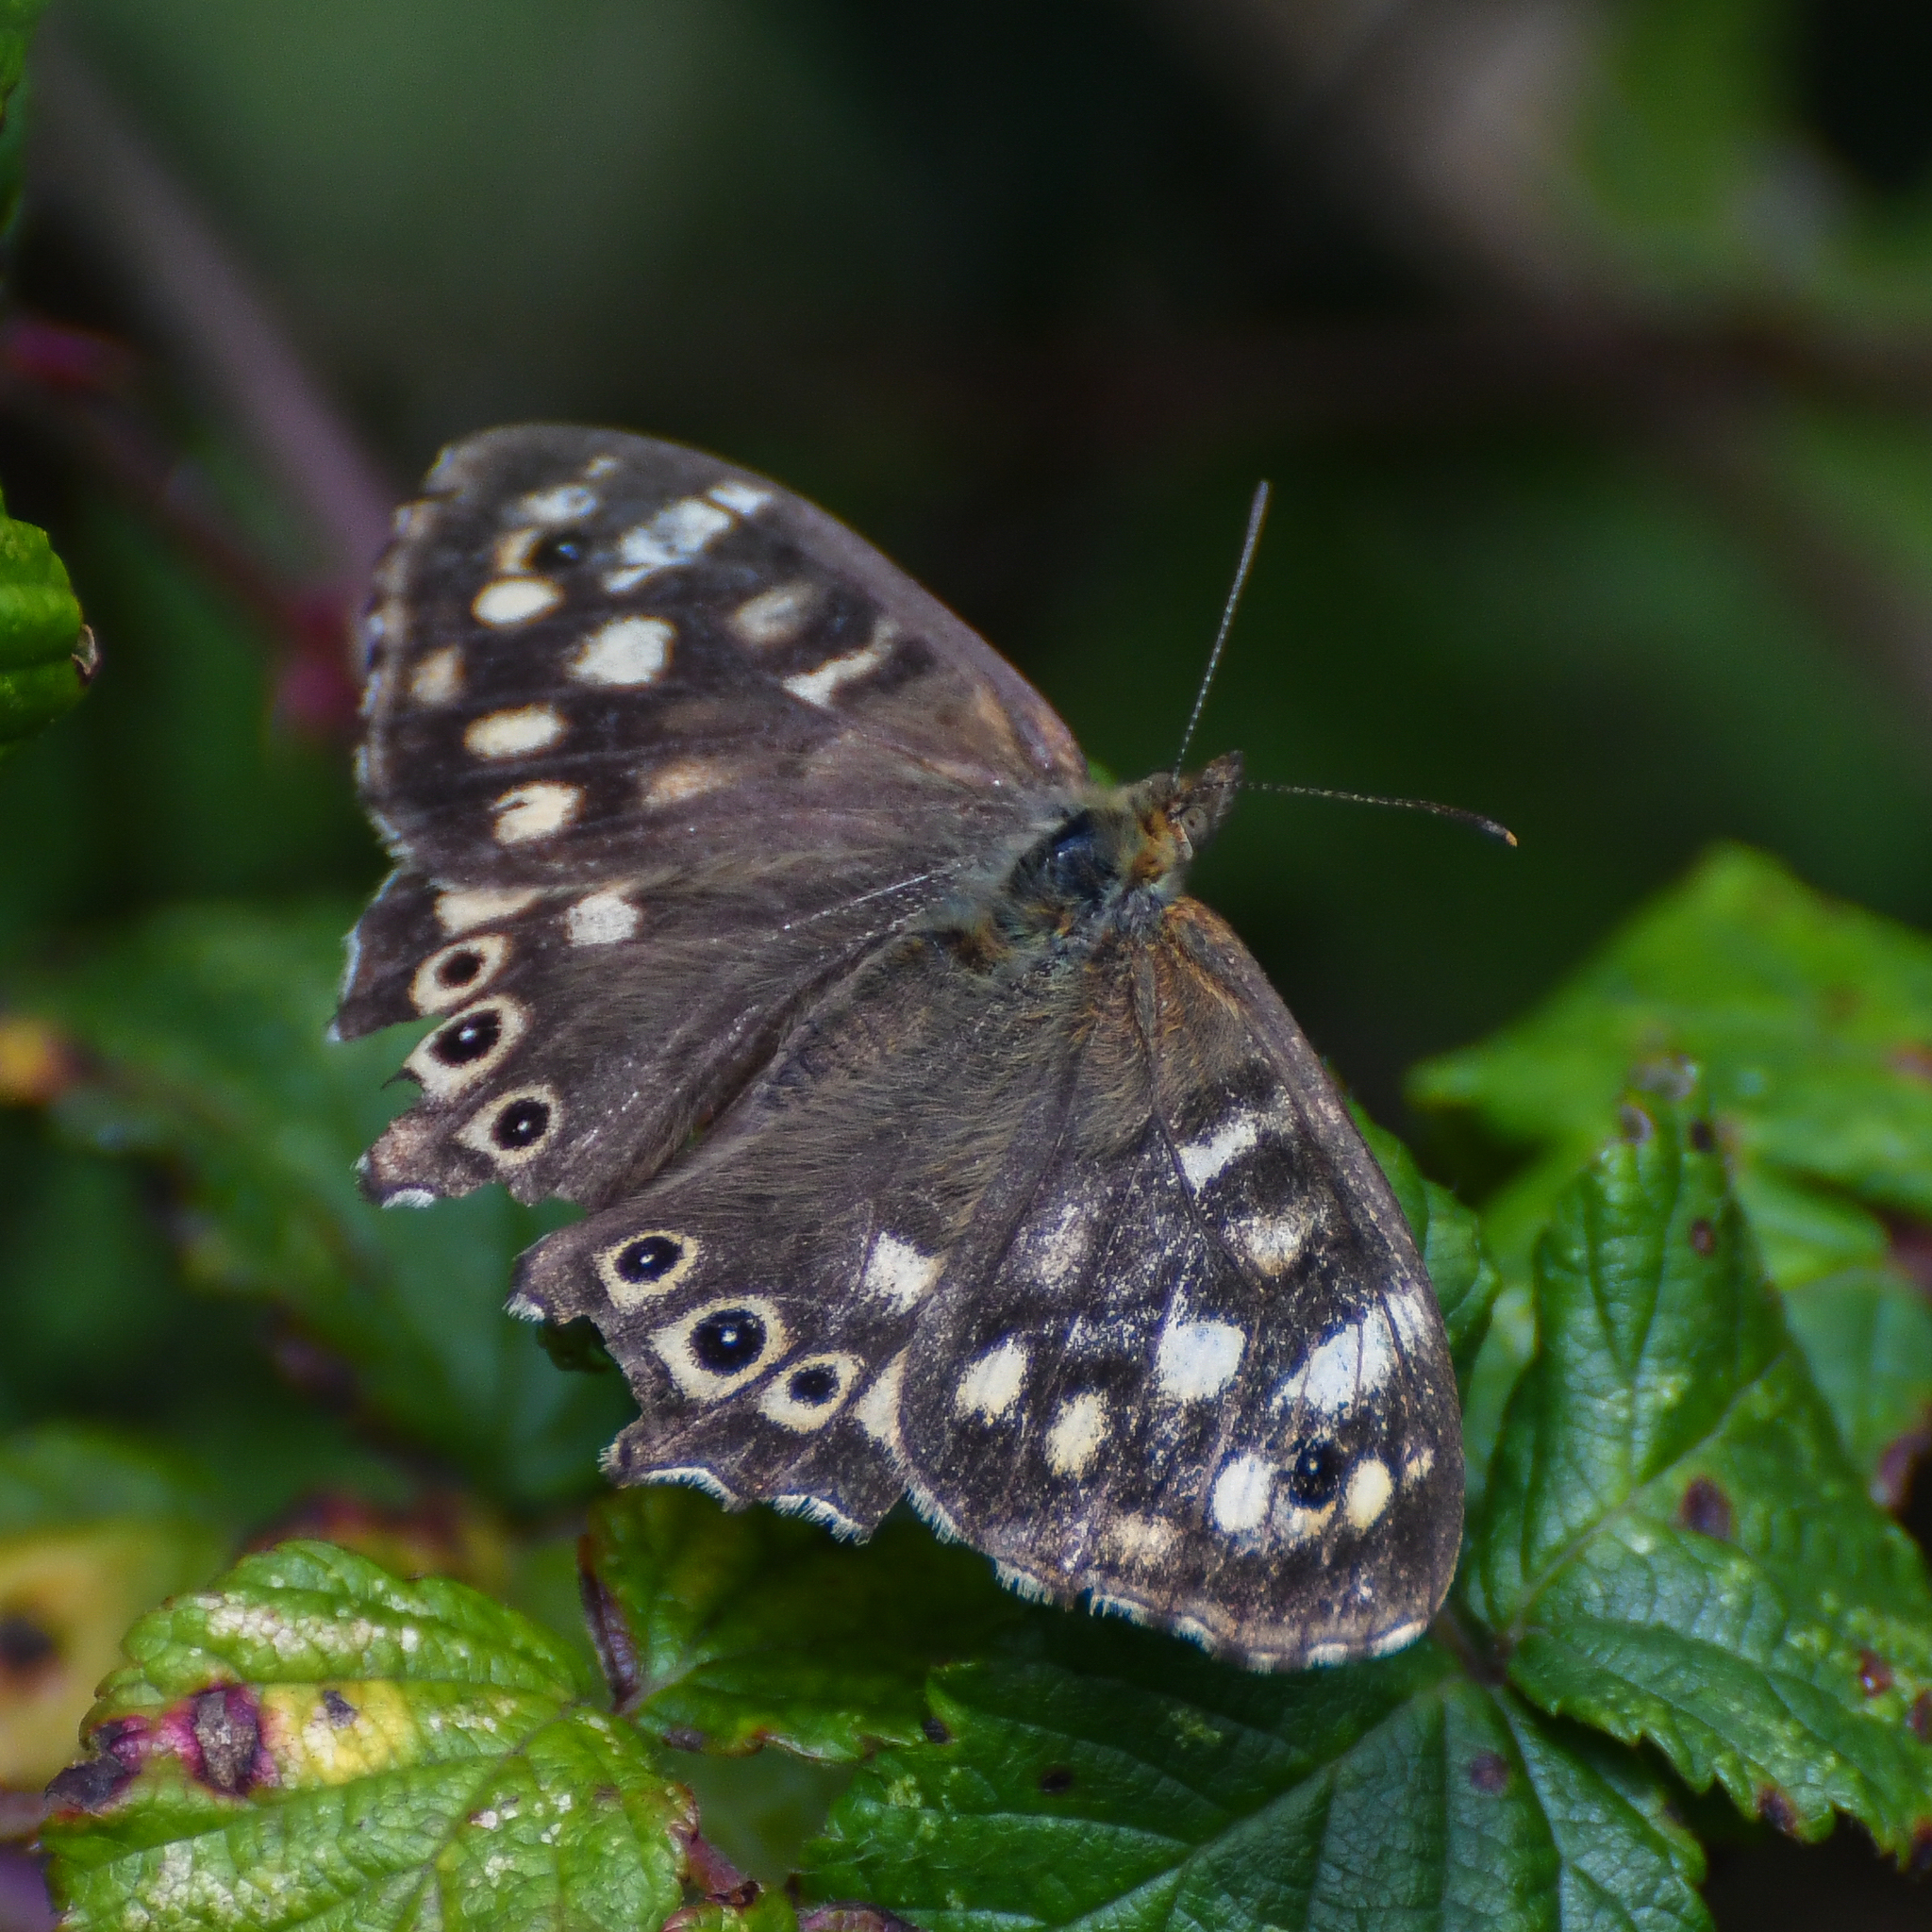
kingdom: Animalia
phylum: Arthropoda
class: Insecta
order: Lepidoptera
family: Nymphalidae
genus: Pararge
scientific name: Pararge aegeria
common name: Speckled wood
